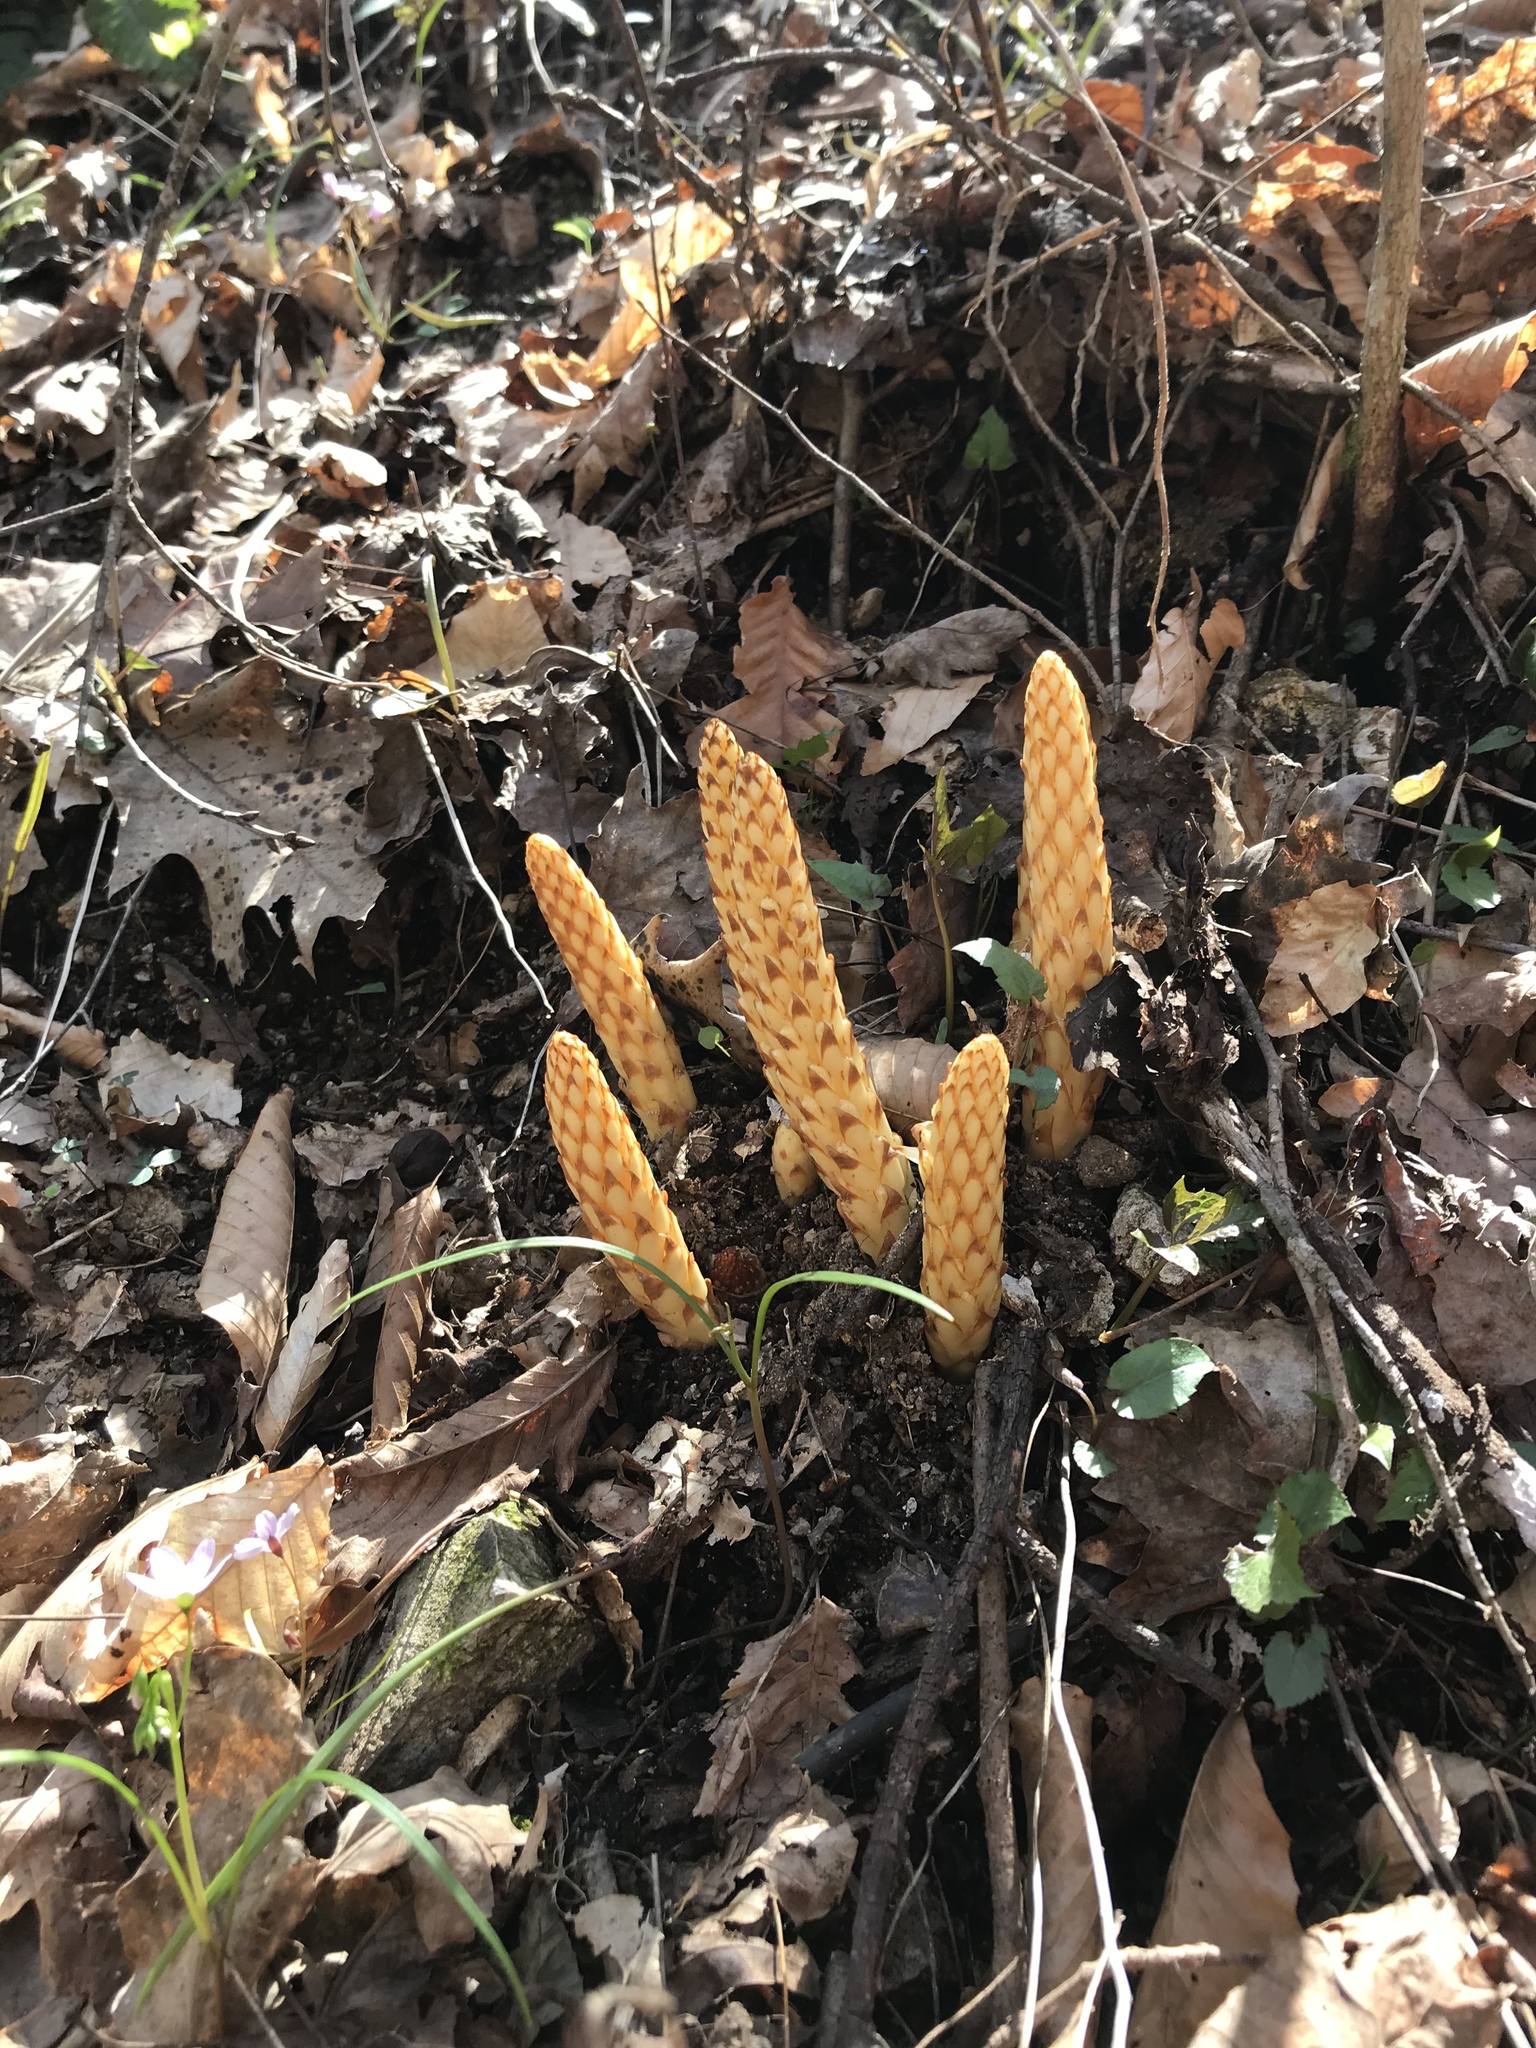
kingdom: Plantae
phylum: Tracheophyta
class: Magnoliopsida
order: Lamiales
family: Orobanchaceae
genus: Conopholis
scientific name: Conopholis americana
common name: American cancer-root
